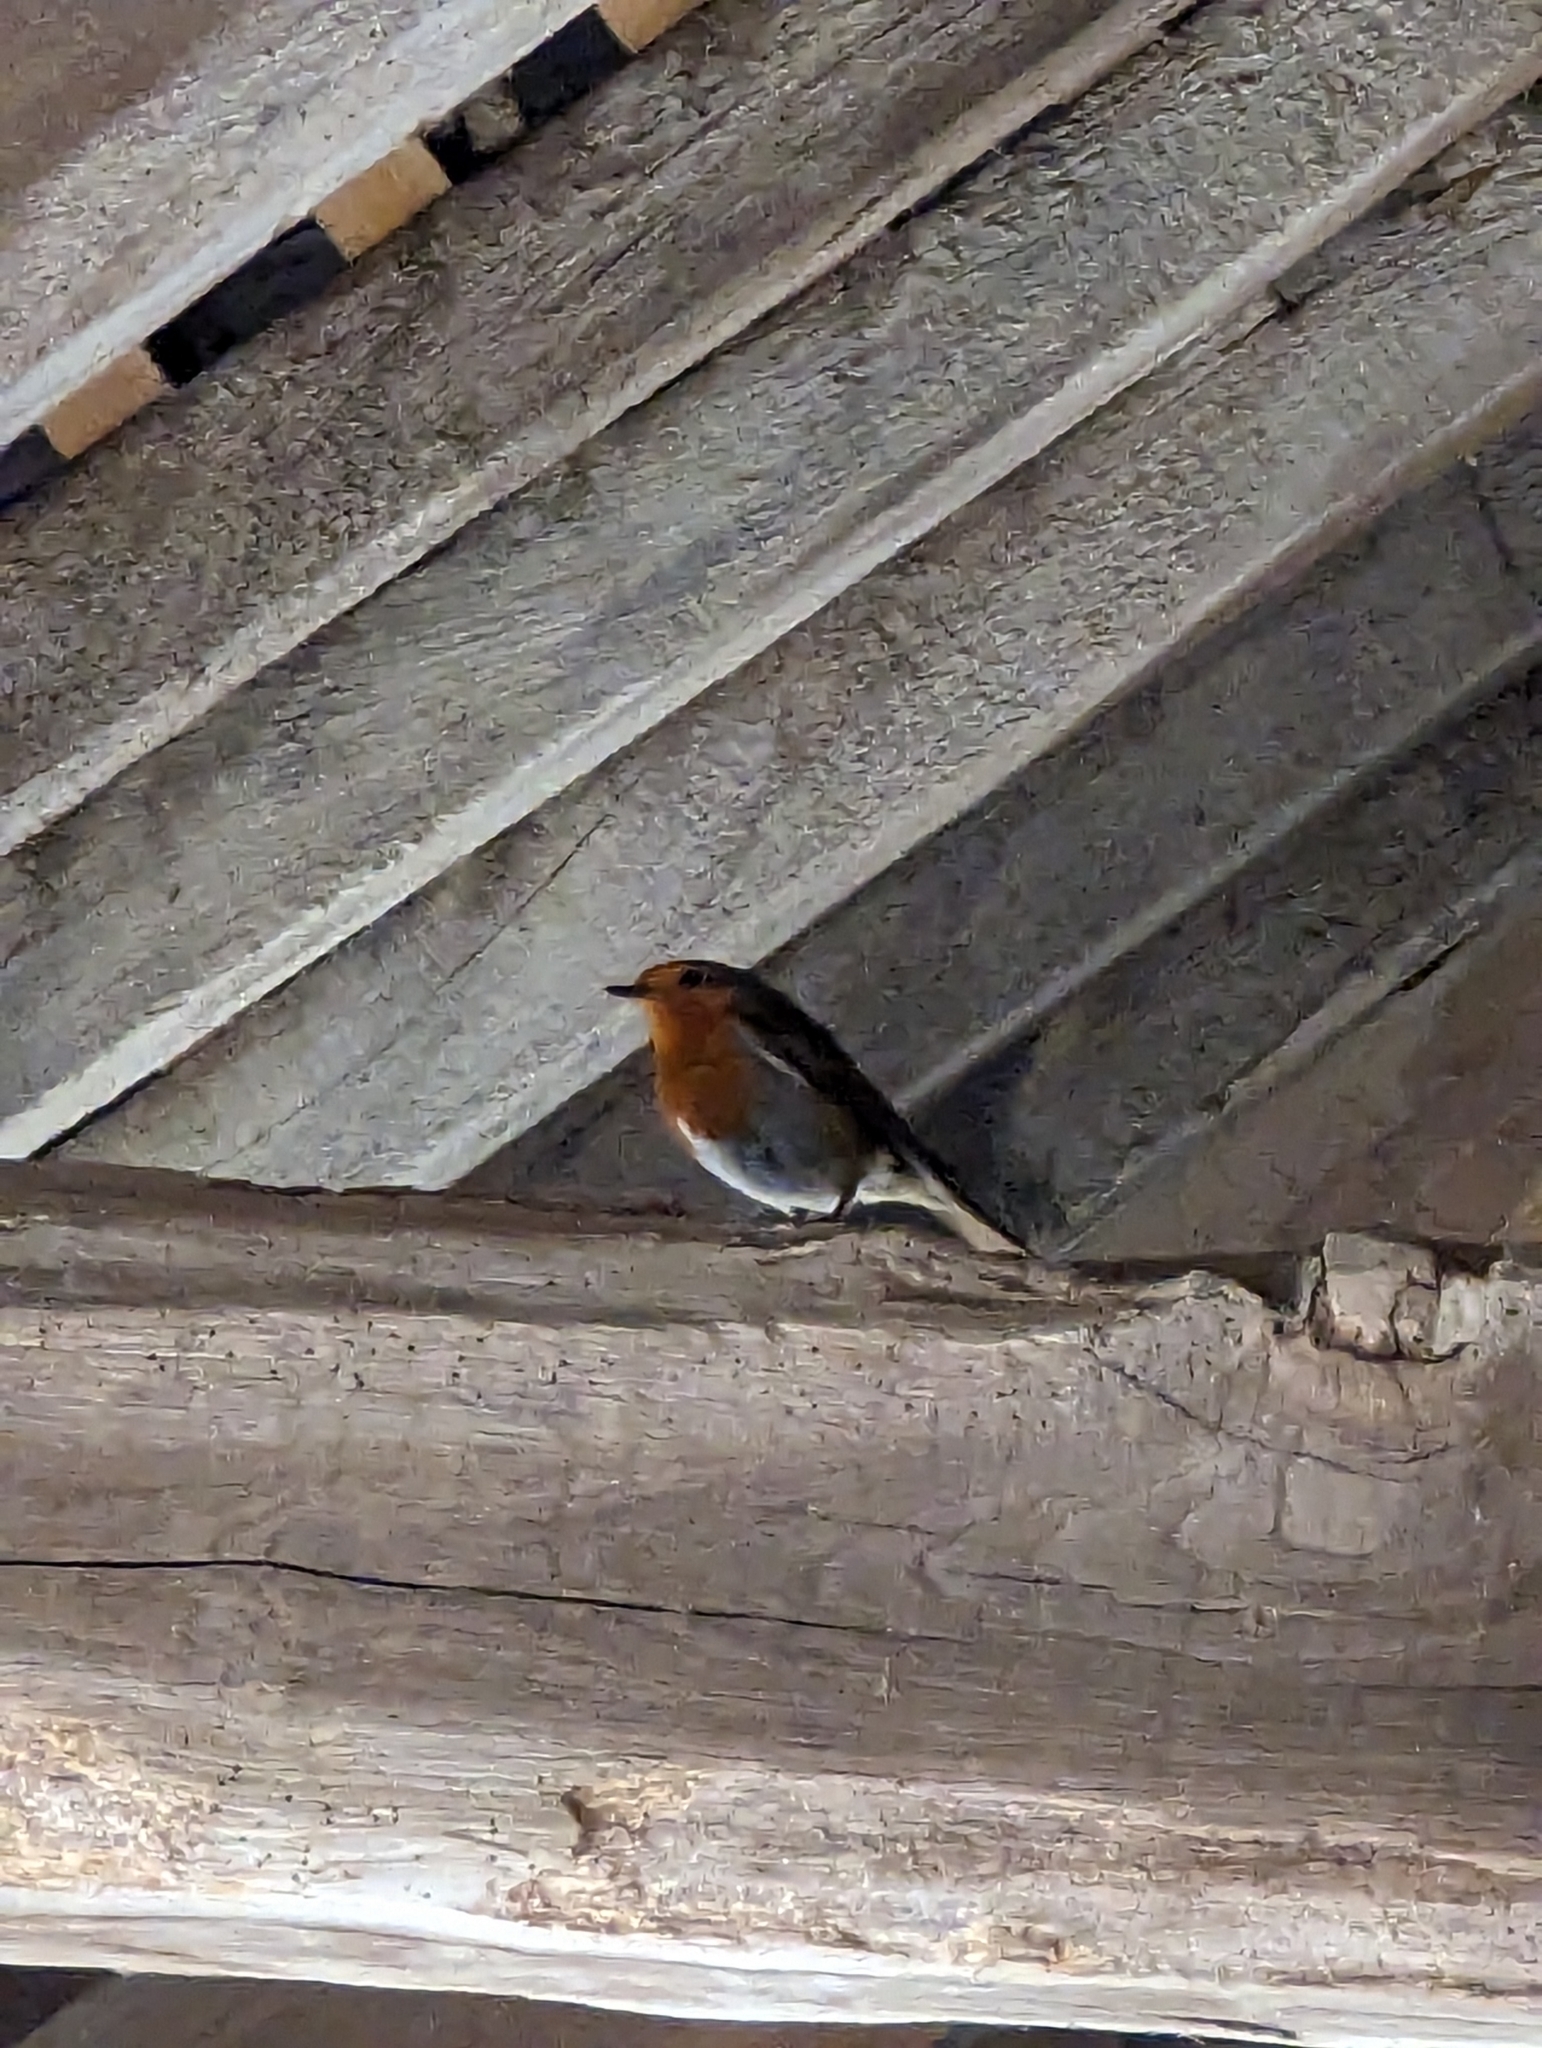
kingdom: Animalia
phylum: Chordata
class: Aves
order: Passeriformes
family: Muscicapidae
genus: Erithacus
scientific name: Erithacus rubecula
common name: European robin
